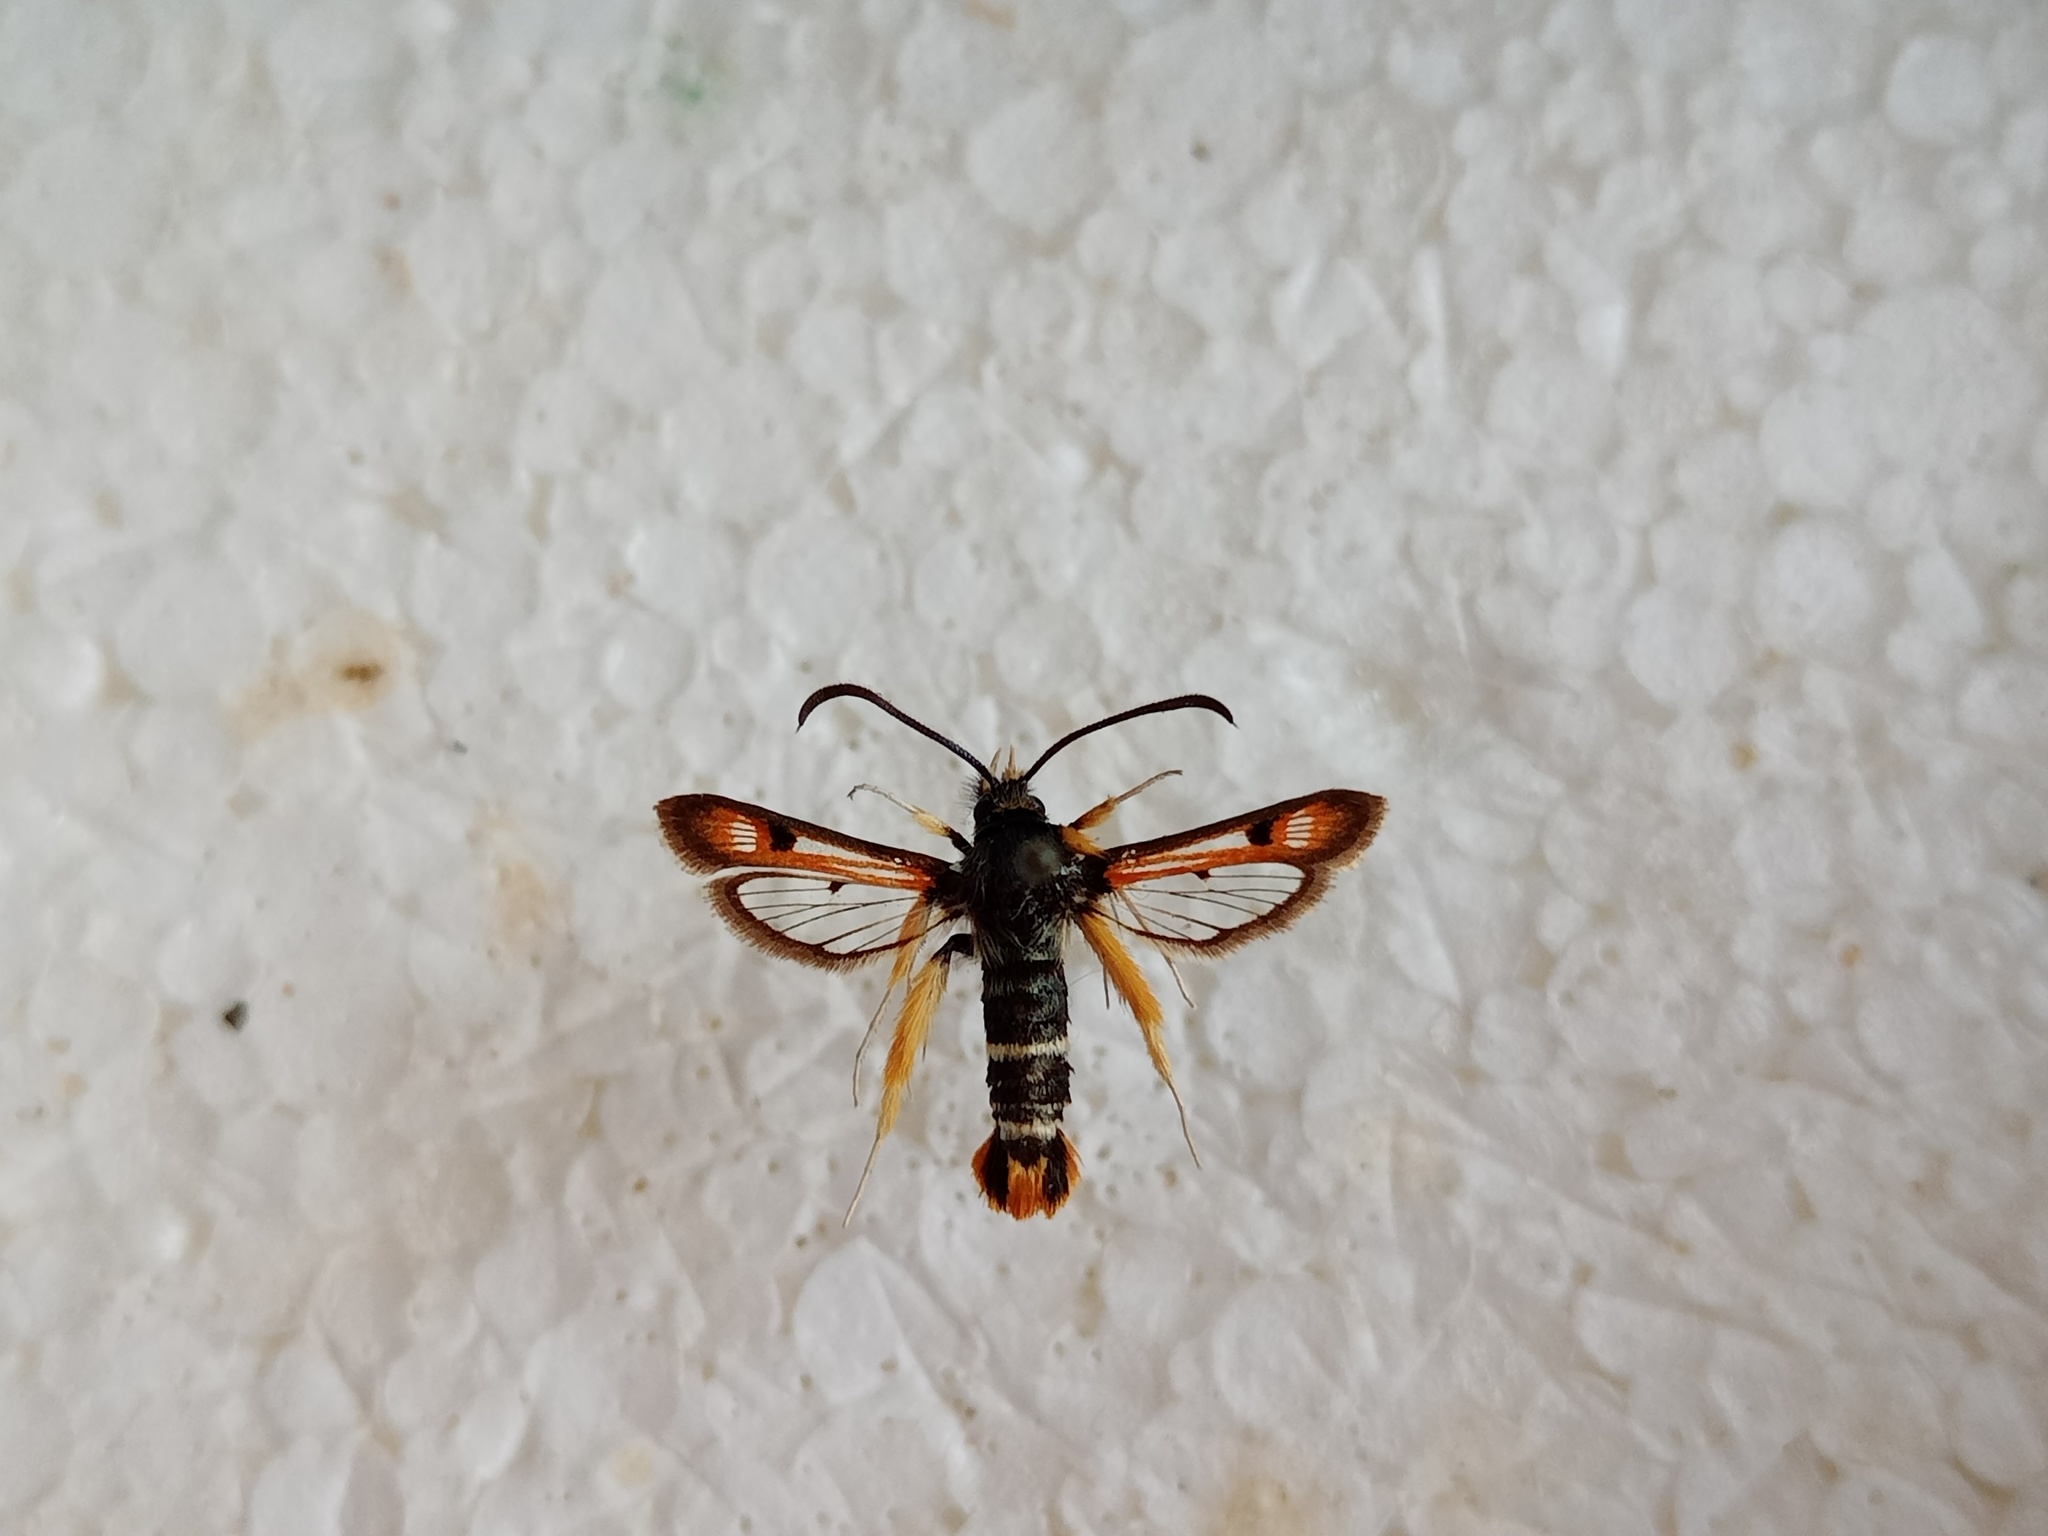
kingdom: Animalia
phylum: Arthropoda
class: Insecta
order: Lepidoptera
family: Sesiidae
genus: Pyropteron
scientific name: Pyropteron chrysidiforme
